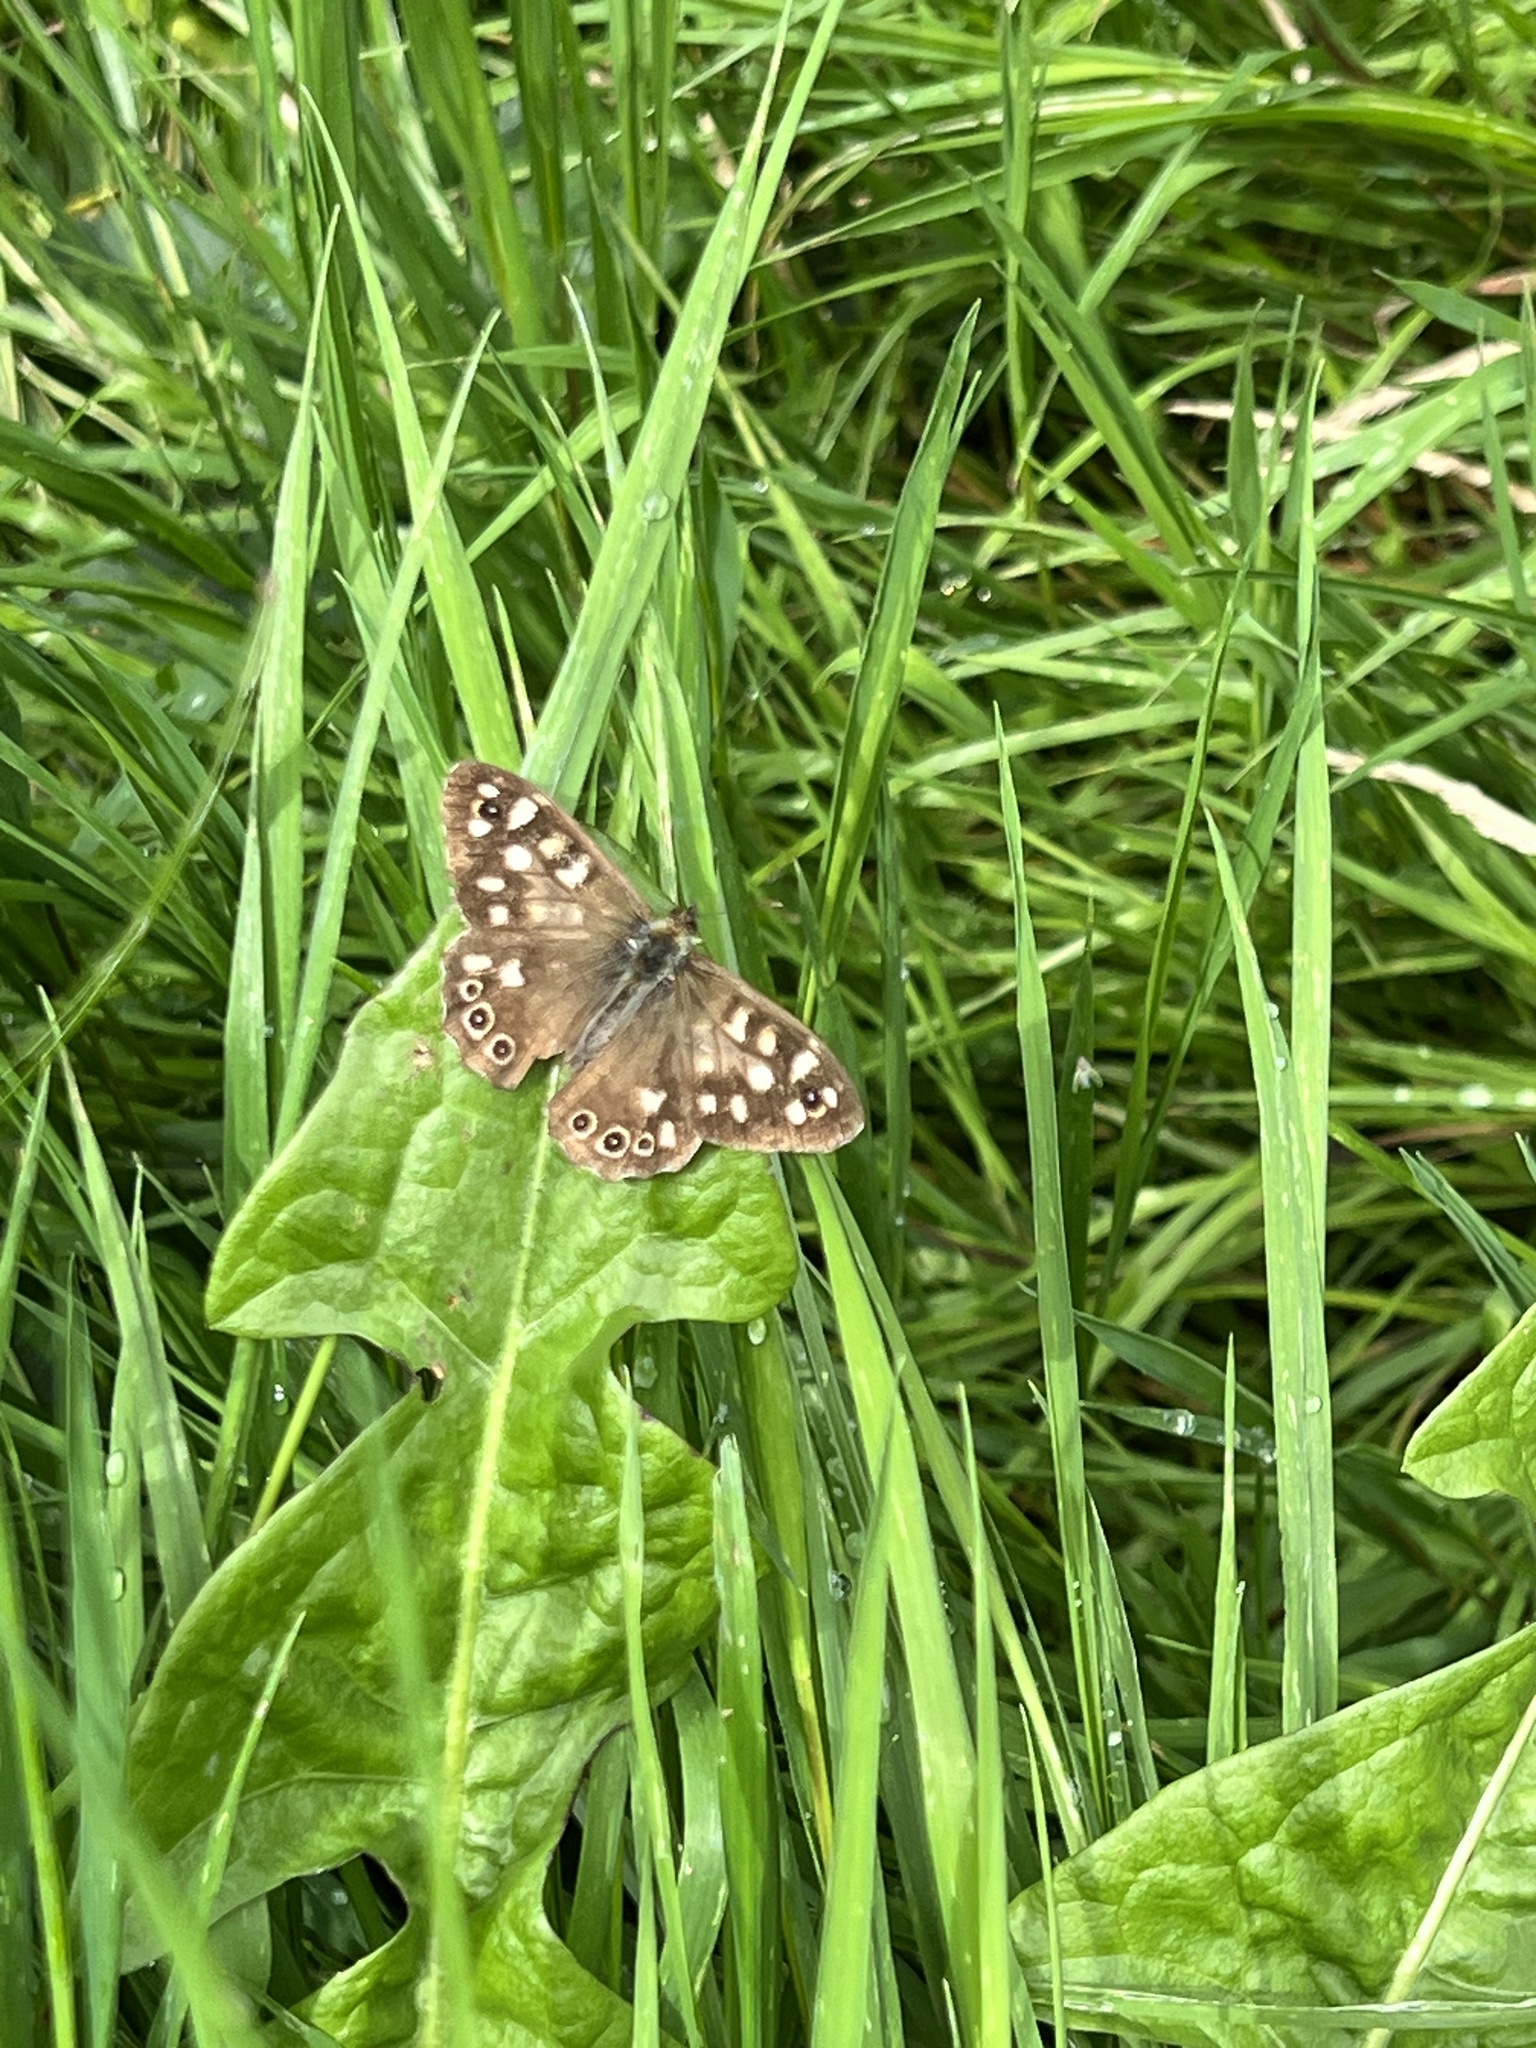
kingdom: Animalia
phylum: Arthropoda
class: Insecta
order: Lepidoptera
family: Nymphalidae
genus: Pararge
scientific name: Pararge aegeria
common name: Speckled wood
